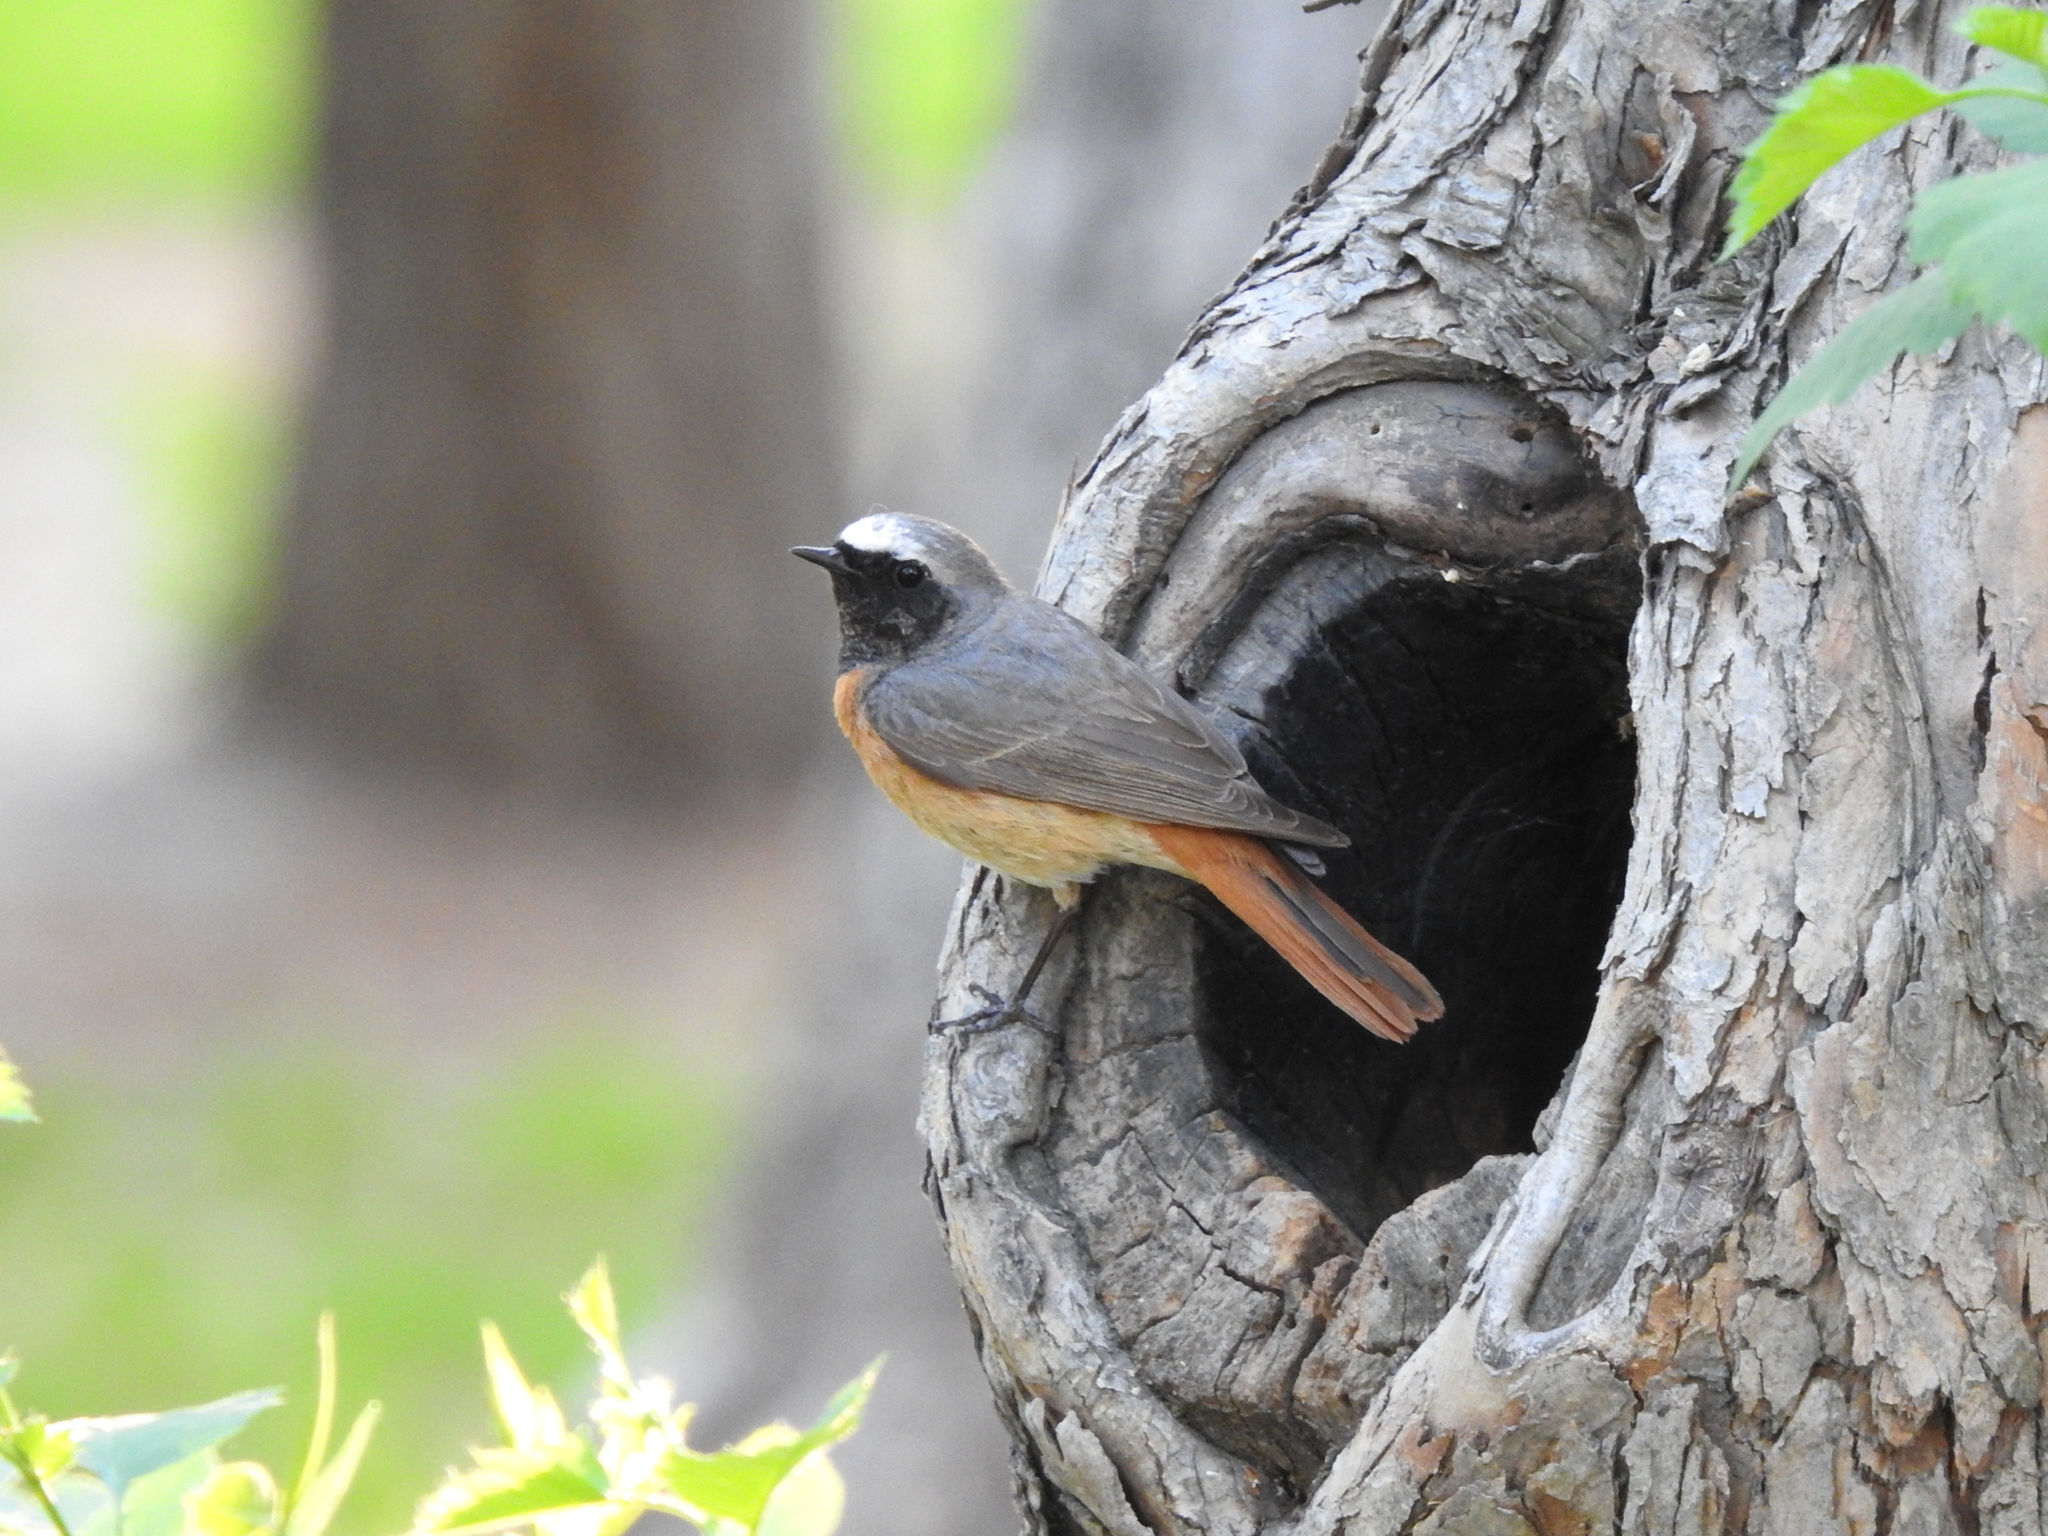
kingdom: Animalia
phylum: Chordata
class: Aves
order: Passeriformes
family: Muscicapidae
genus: Phoenicurus
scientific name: Phoenicurus phoenicurus
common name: Common redstart
